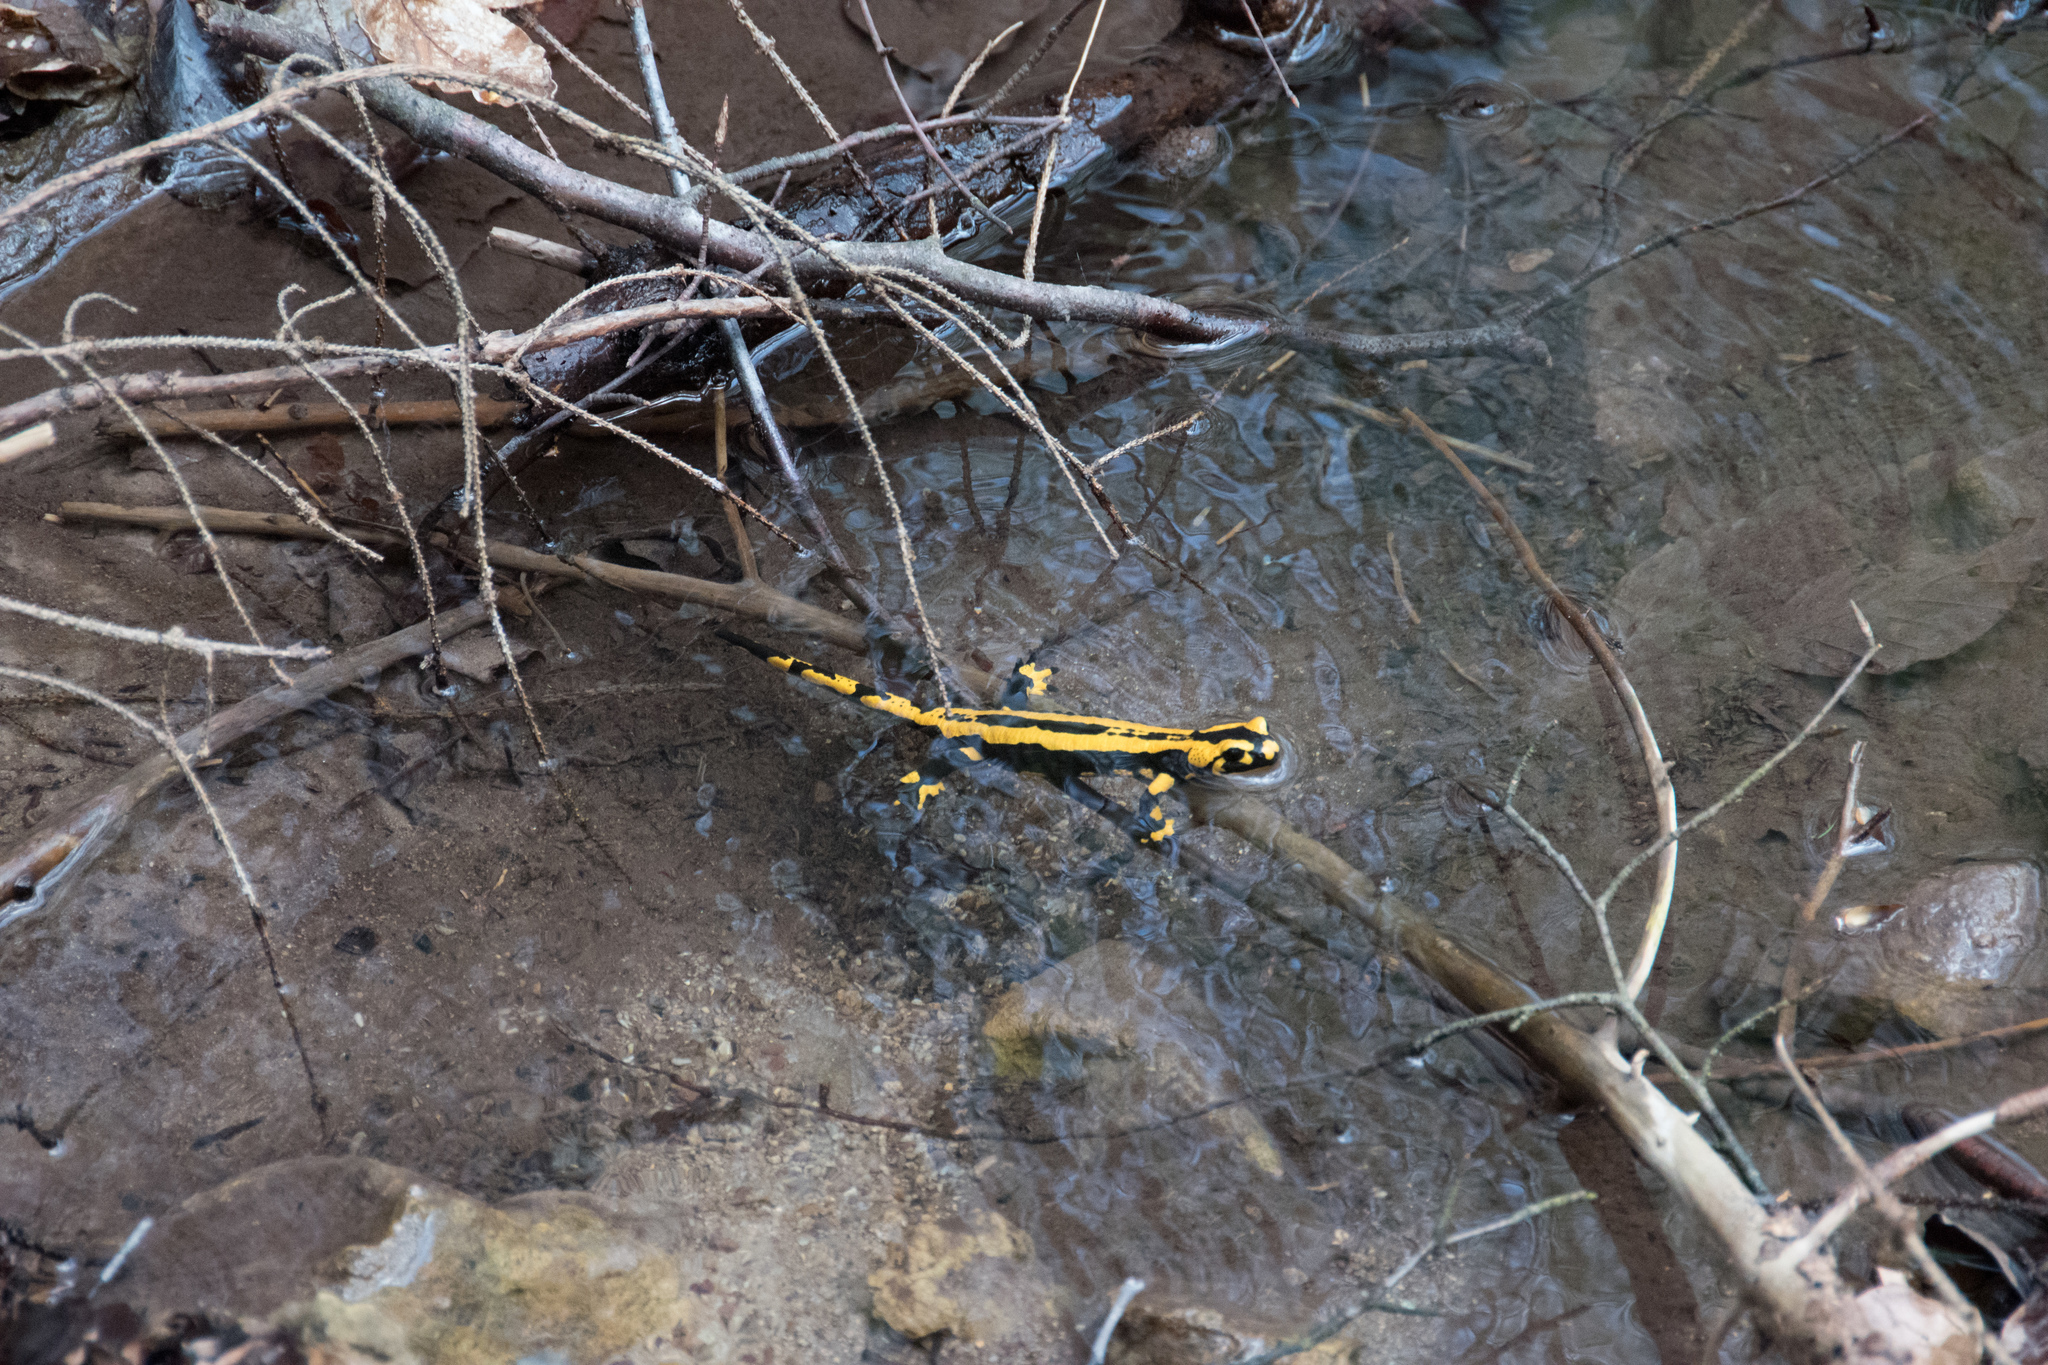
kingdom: Animalia
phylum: Chordata
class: Amphibia
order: Caudata
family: Salamandridae
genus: Salamandra
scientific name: Salamandra salamandra
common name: Fire salamander
